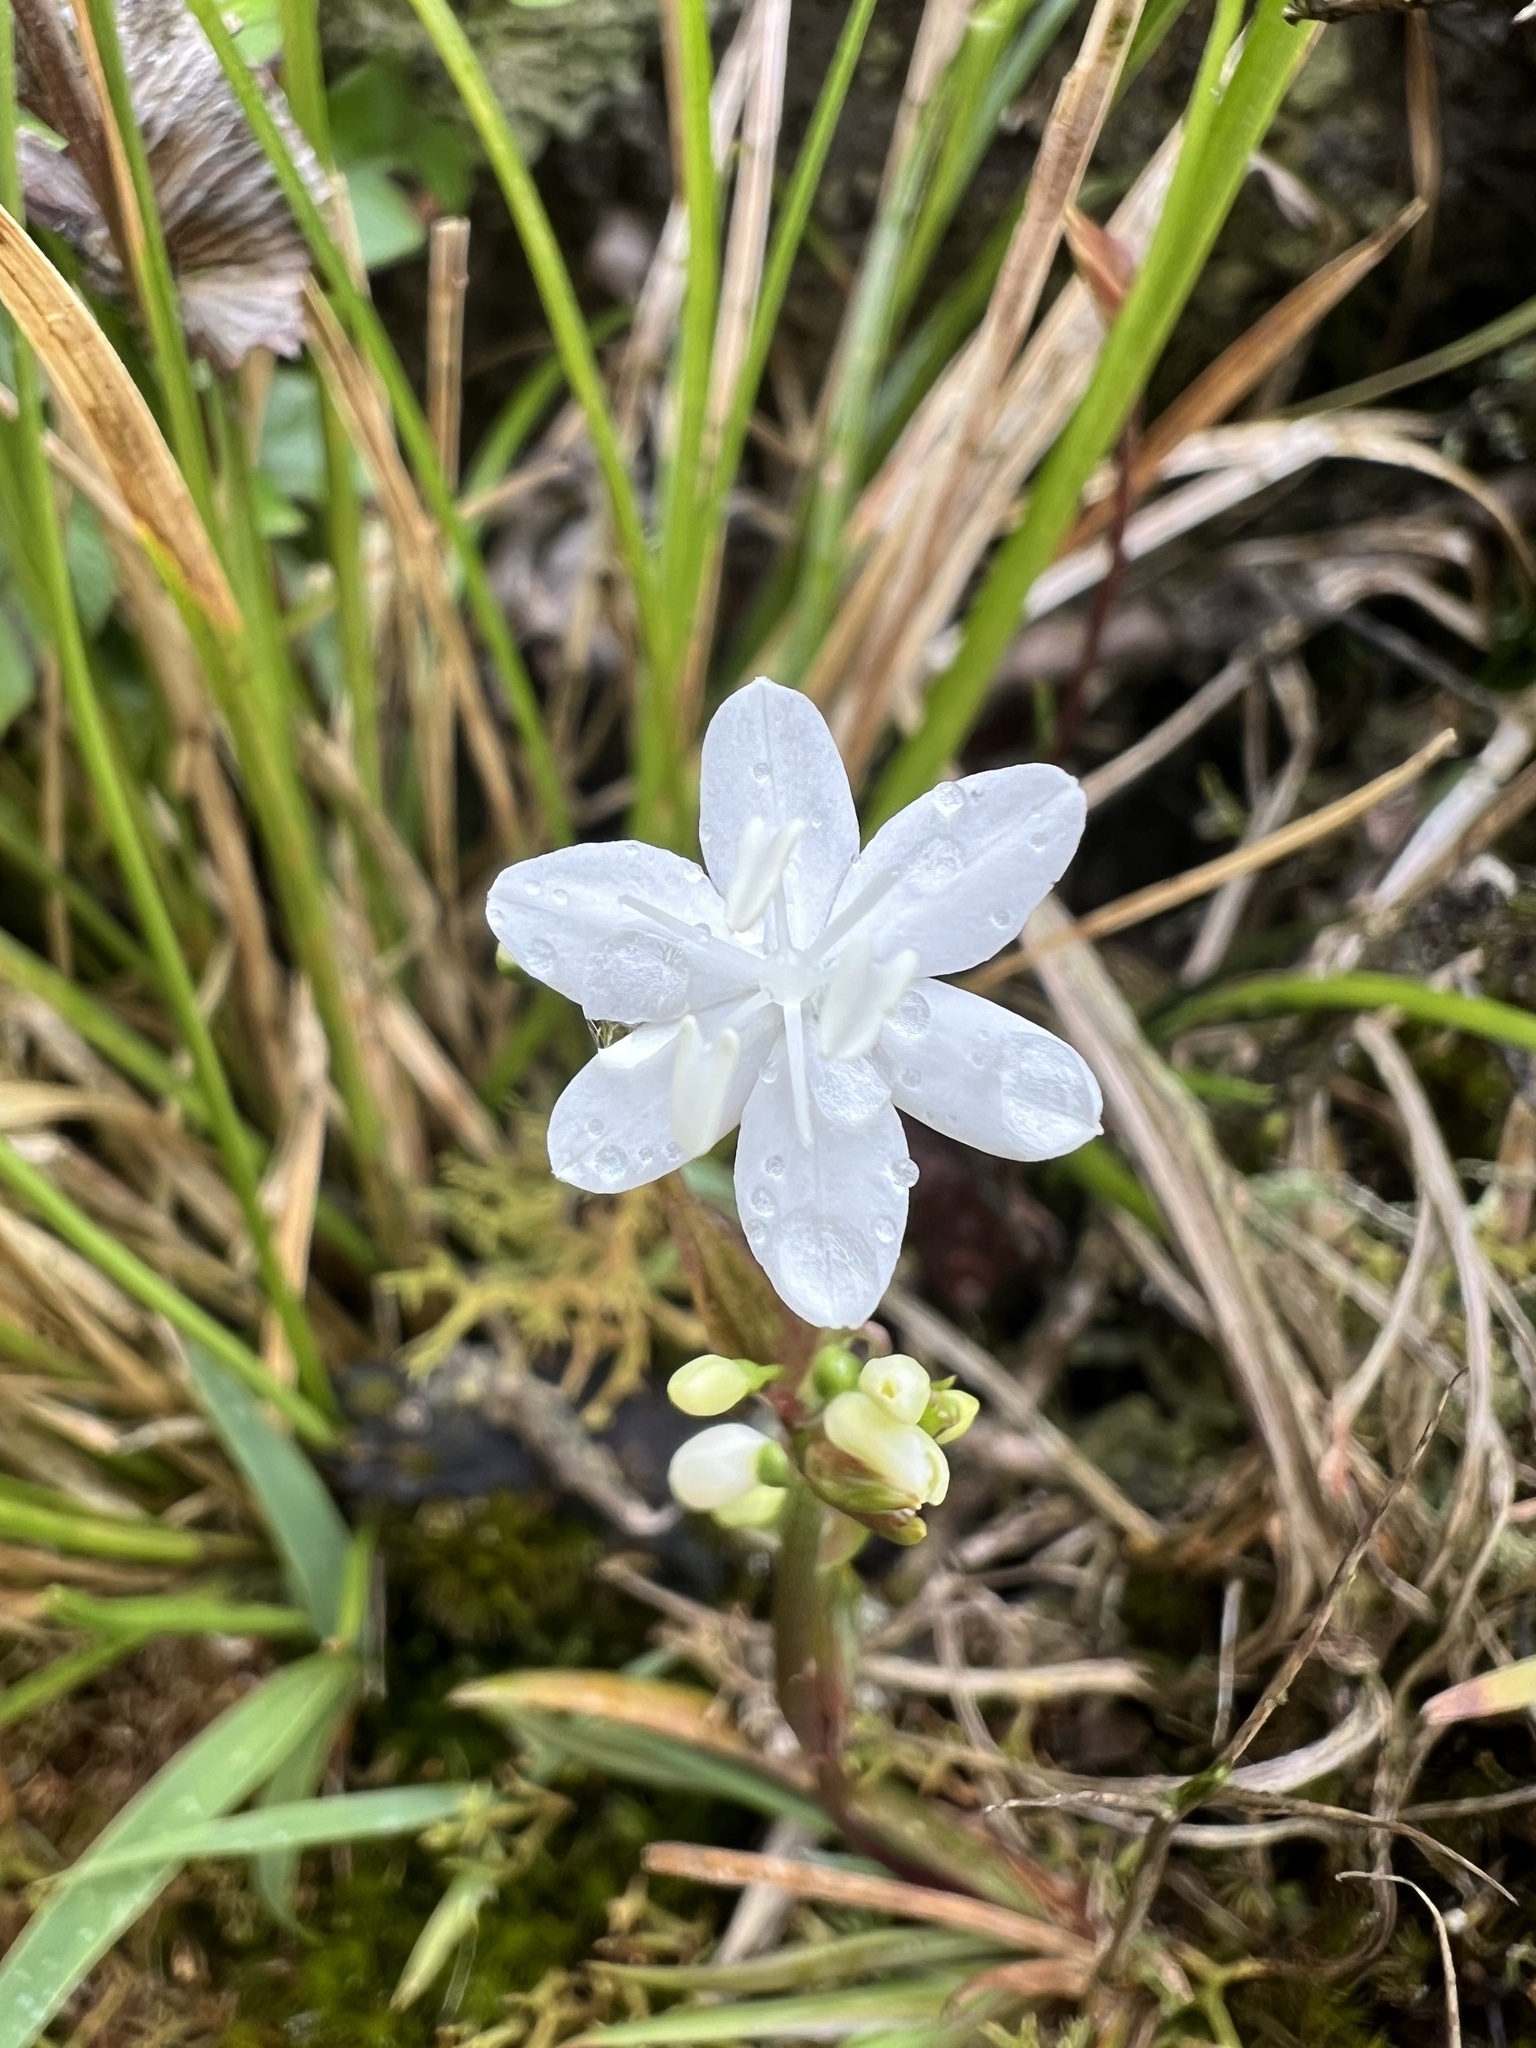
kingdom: Plantae
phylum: Tracheophyta
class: Liliopsida
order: Asparagales
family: Iridaceae
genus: Libertia
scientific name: Libertia micrantha
